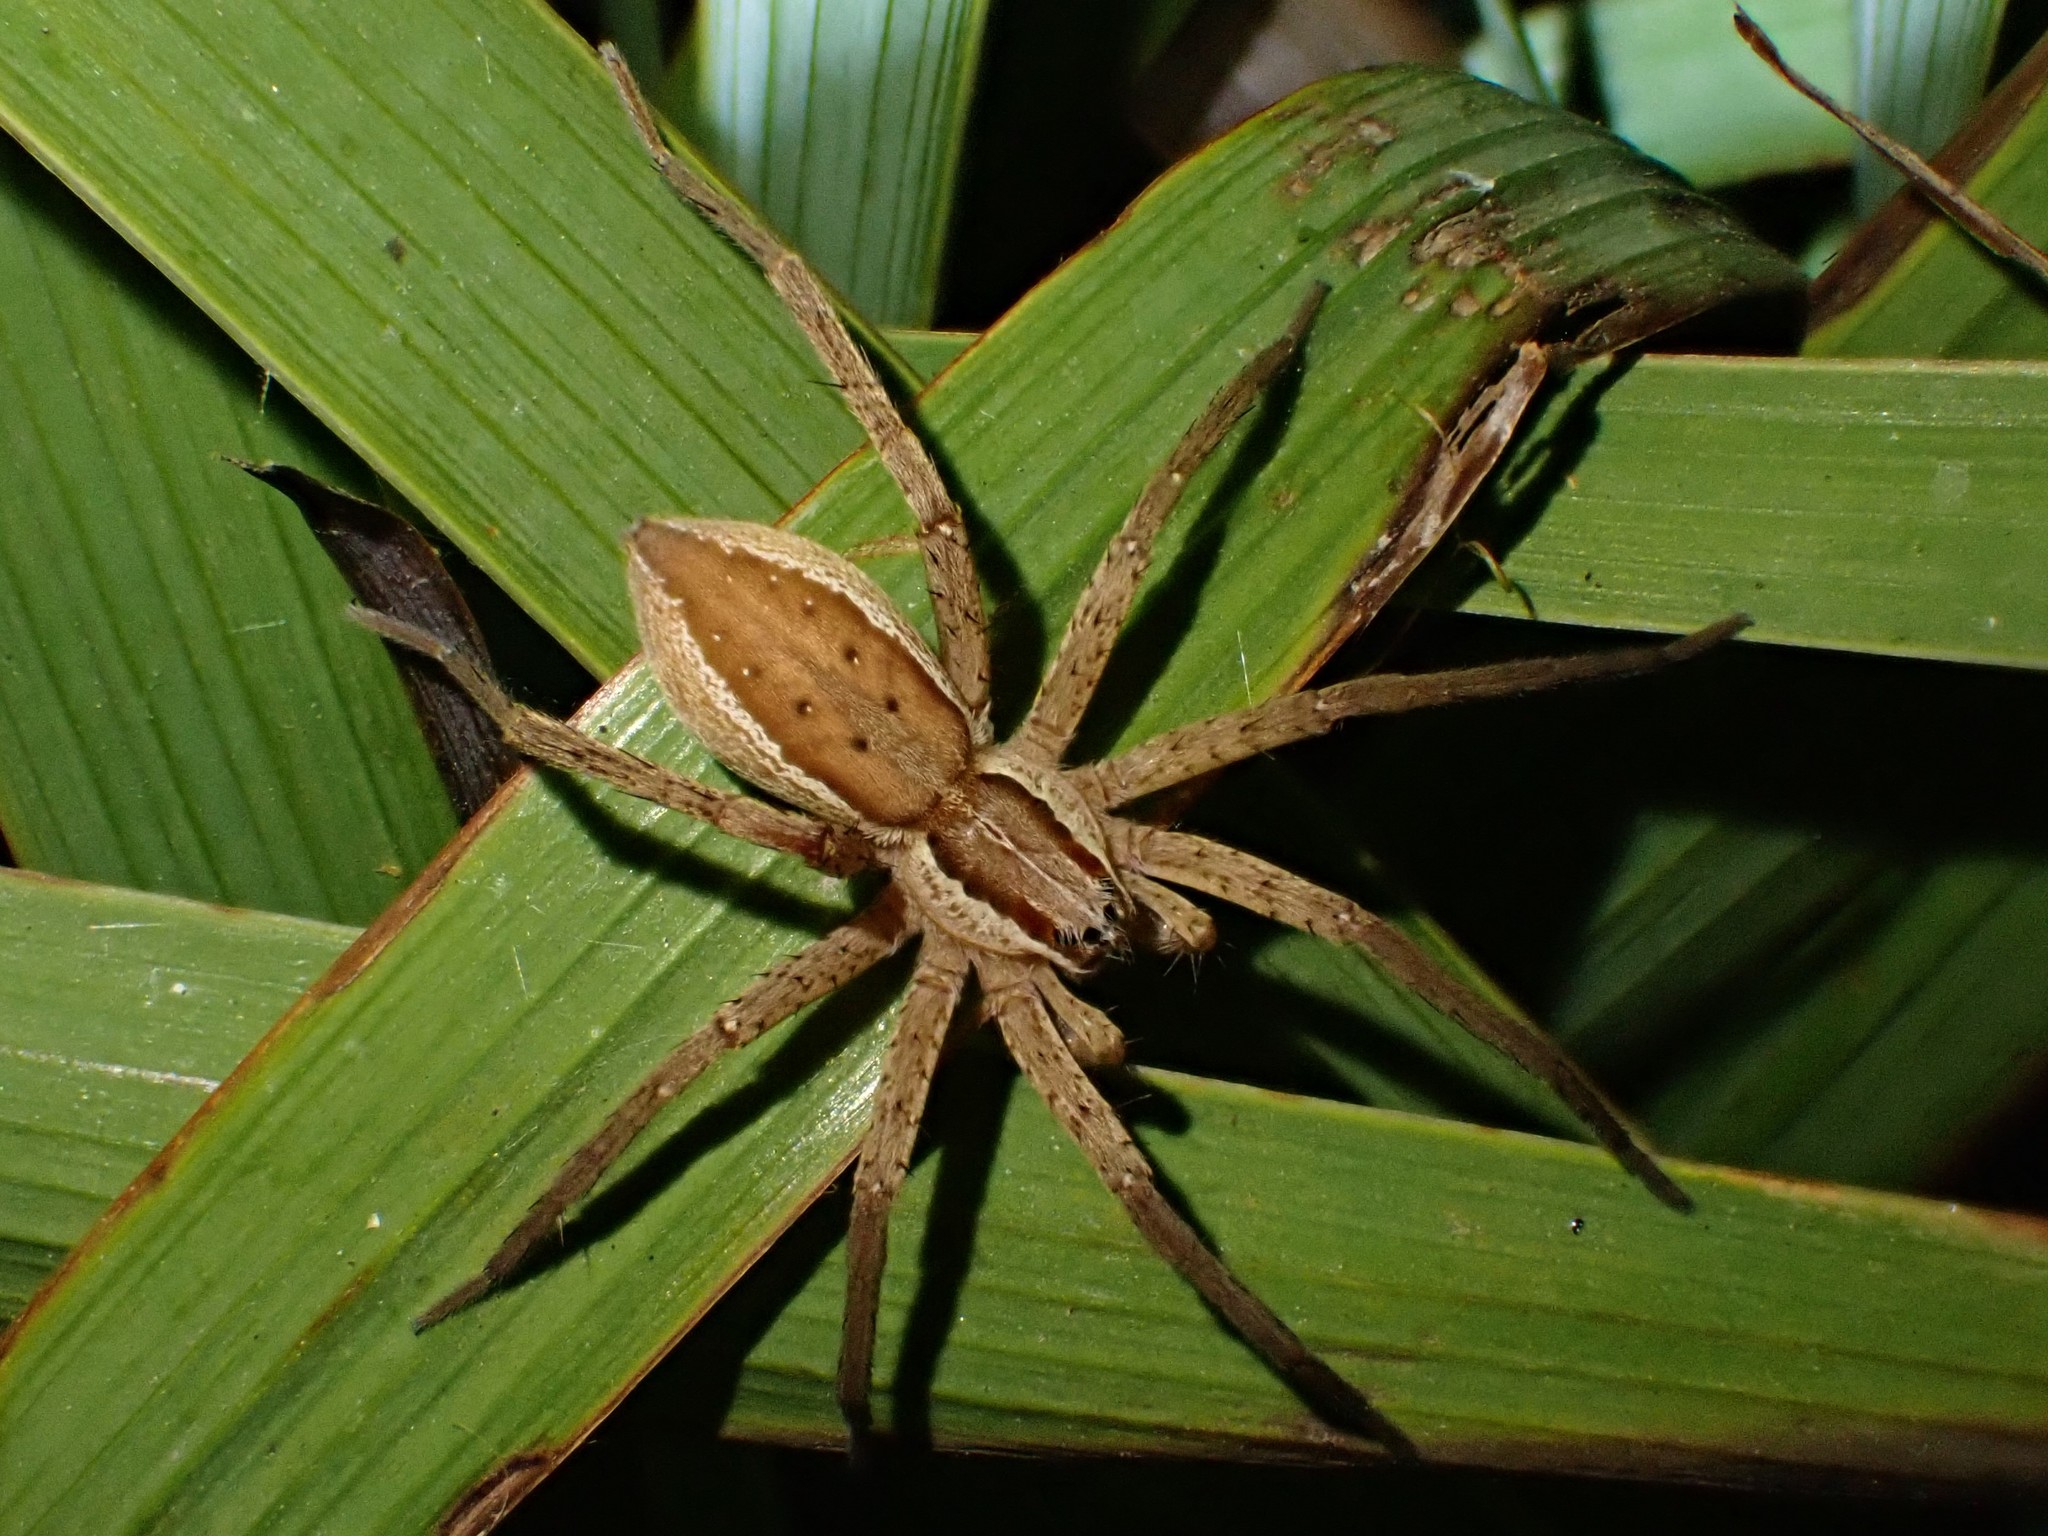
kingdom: Animalia
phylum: Arthropoda
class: Arachnida
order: Araneae
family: Pisauridae
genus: Dolomedes
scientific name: Dolomedes minor
